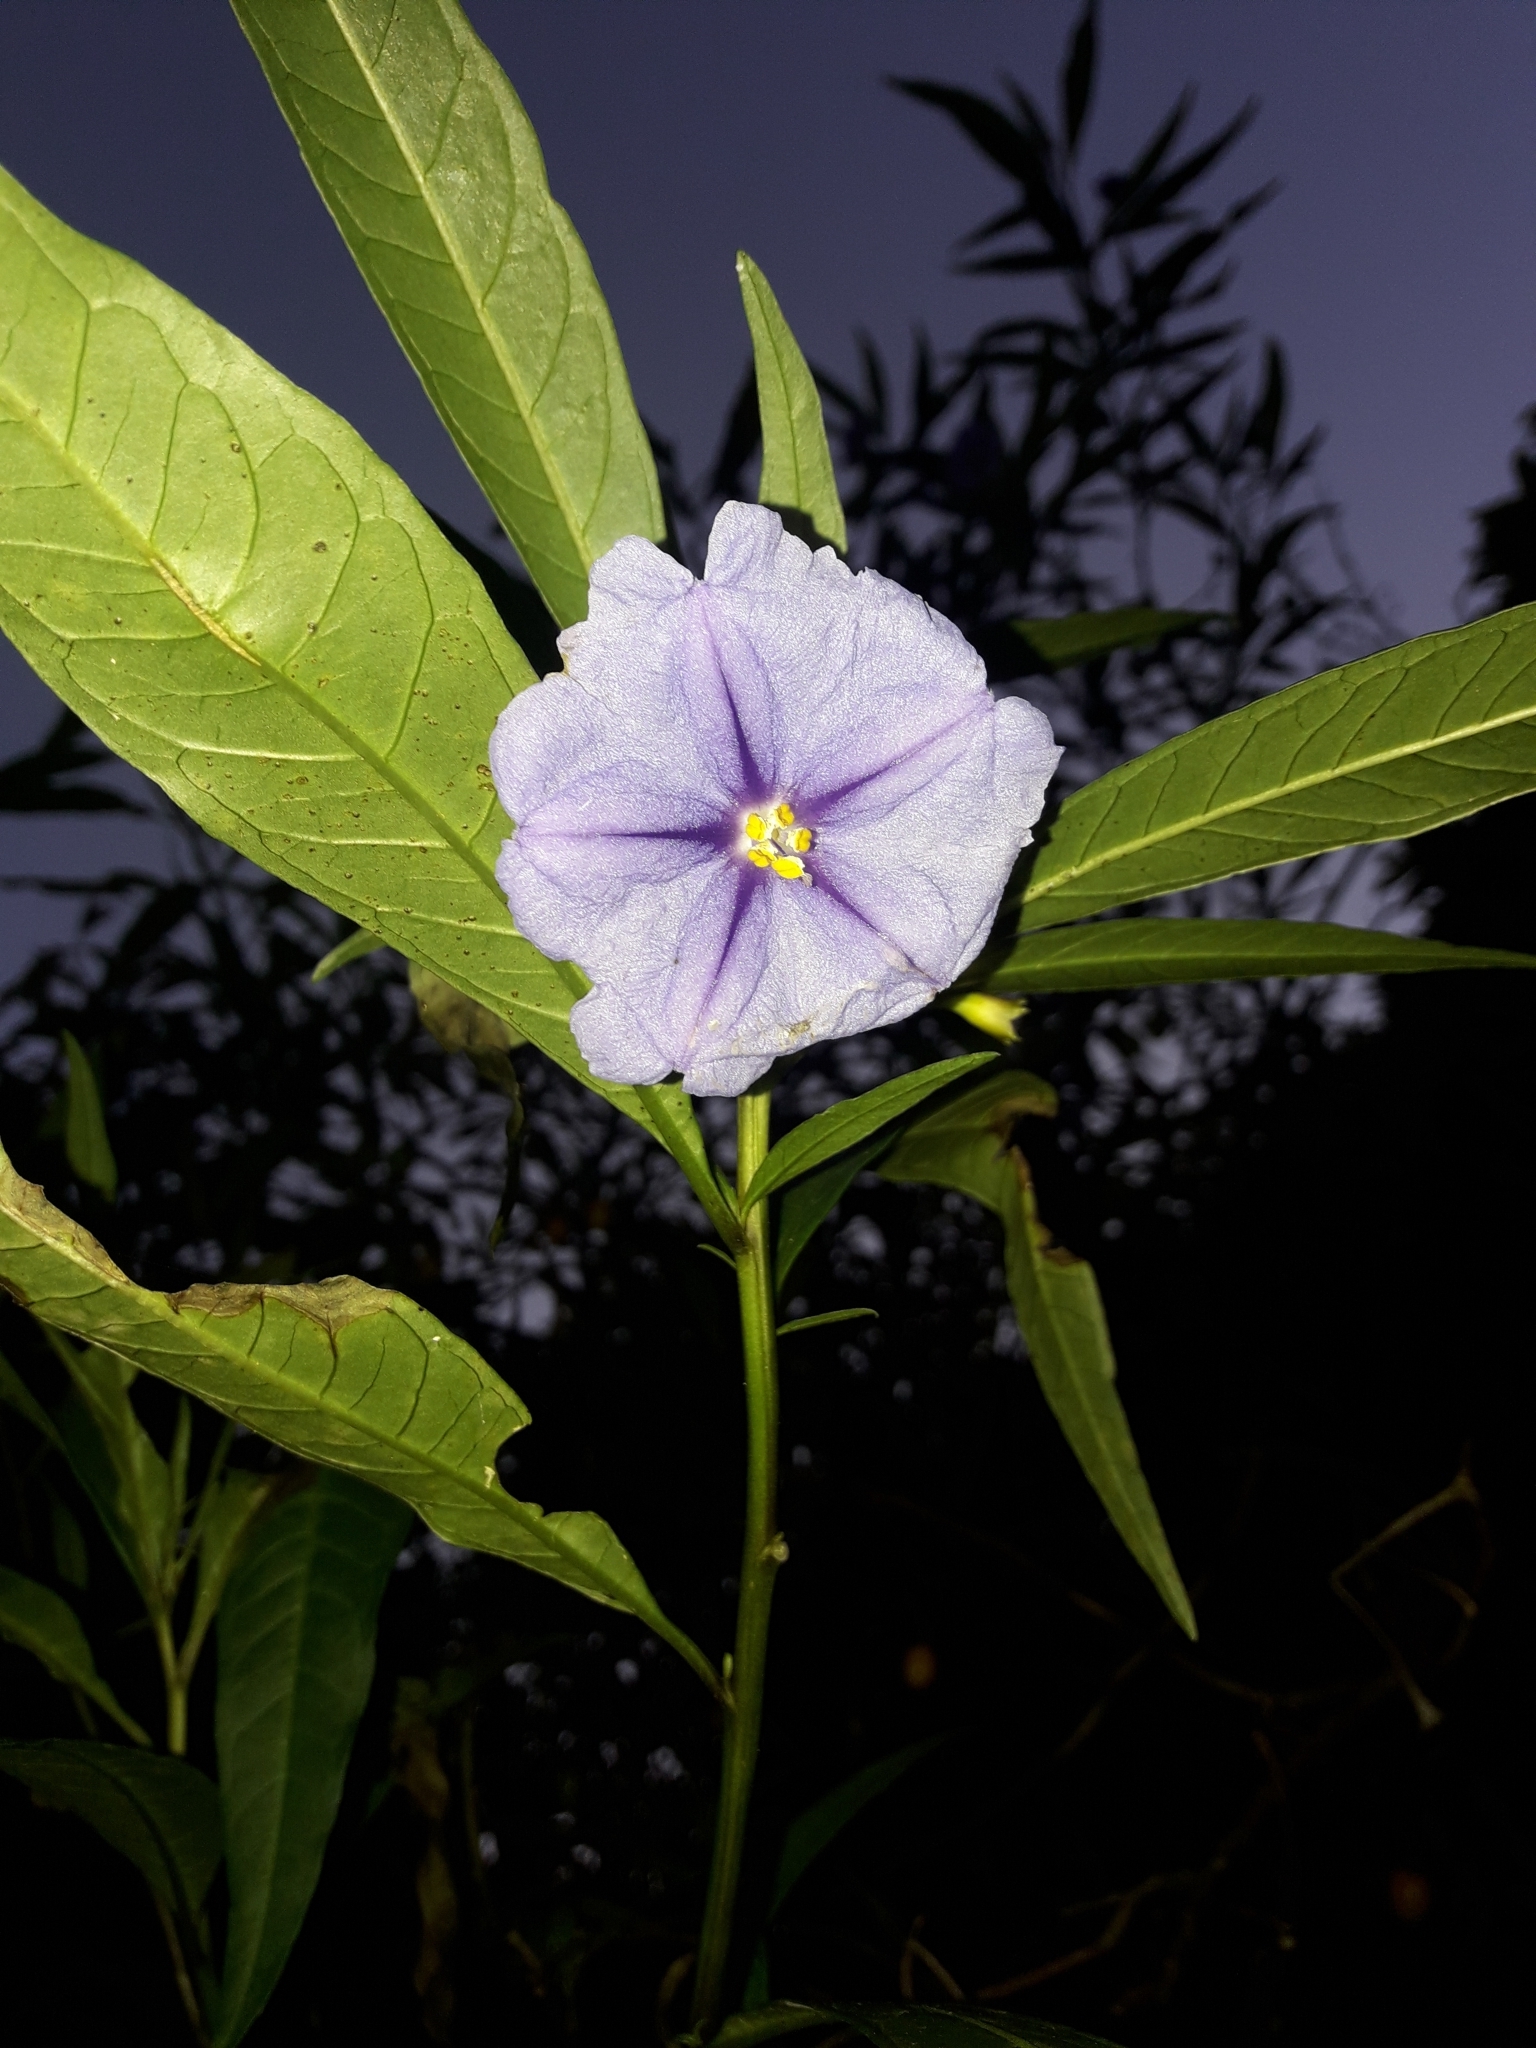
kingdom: Plantae
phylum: Tracheophyta
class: Magnoliopsida
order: Solanales
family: Solanaceae
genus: Solanum
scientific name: Solanum laciniatum
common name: Kangaroo-apple
